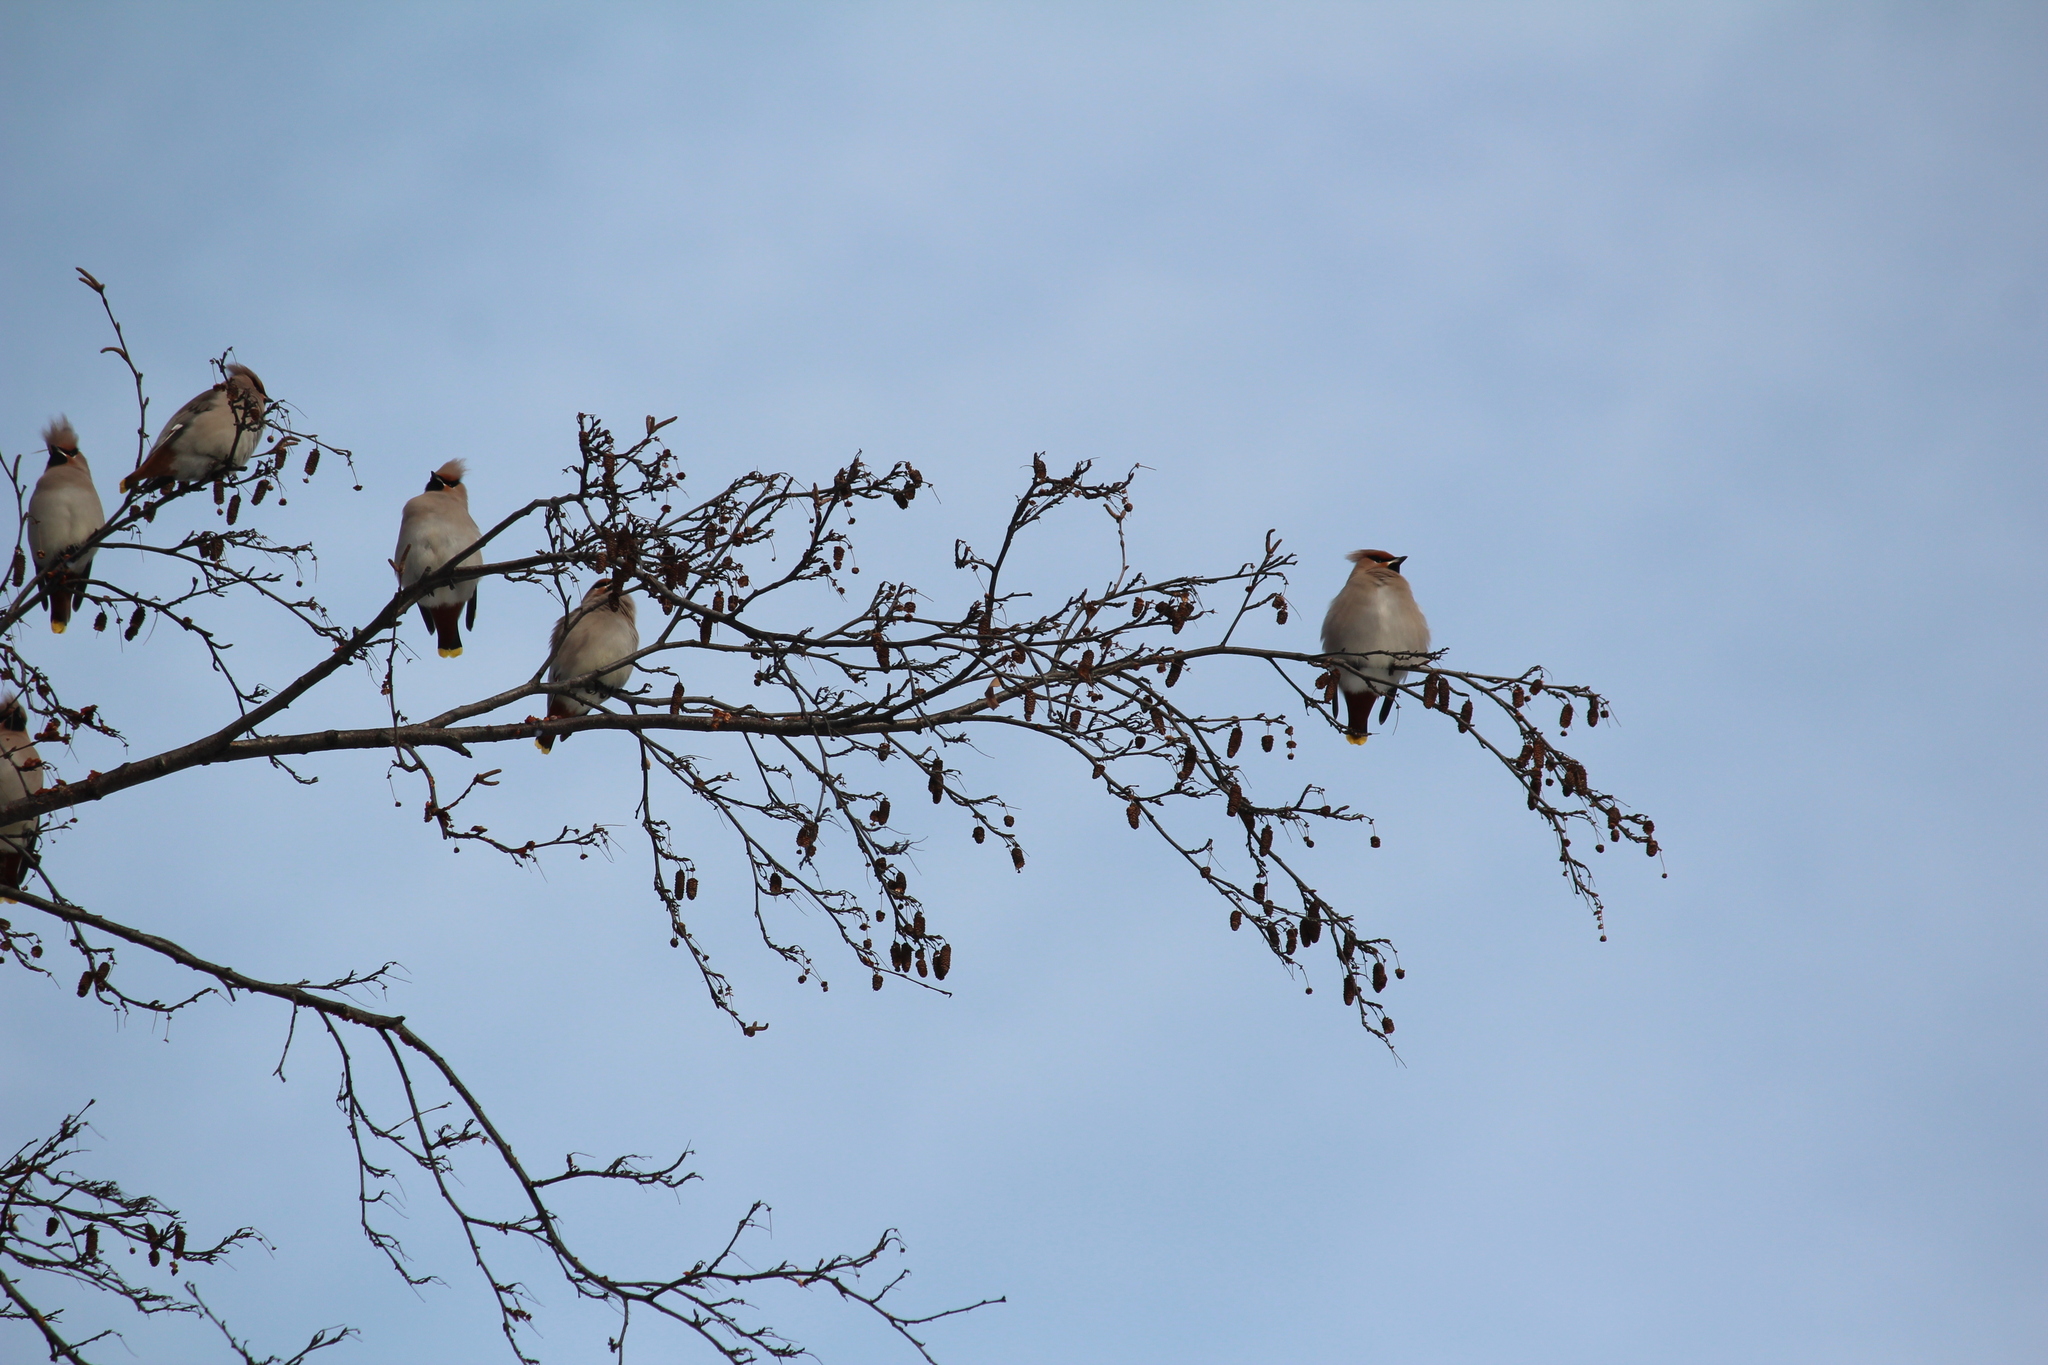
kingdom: Animalia
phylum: Chordata
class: Aves
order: Passeriformes
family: Bombycillidae
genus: Bombycilla
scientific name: Bombycilla garrulus
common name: Bohemian waxwing
